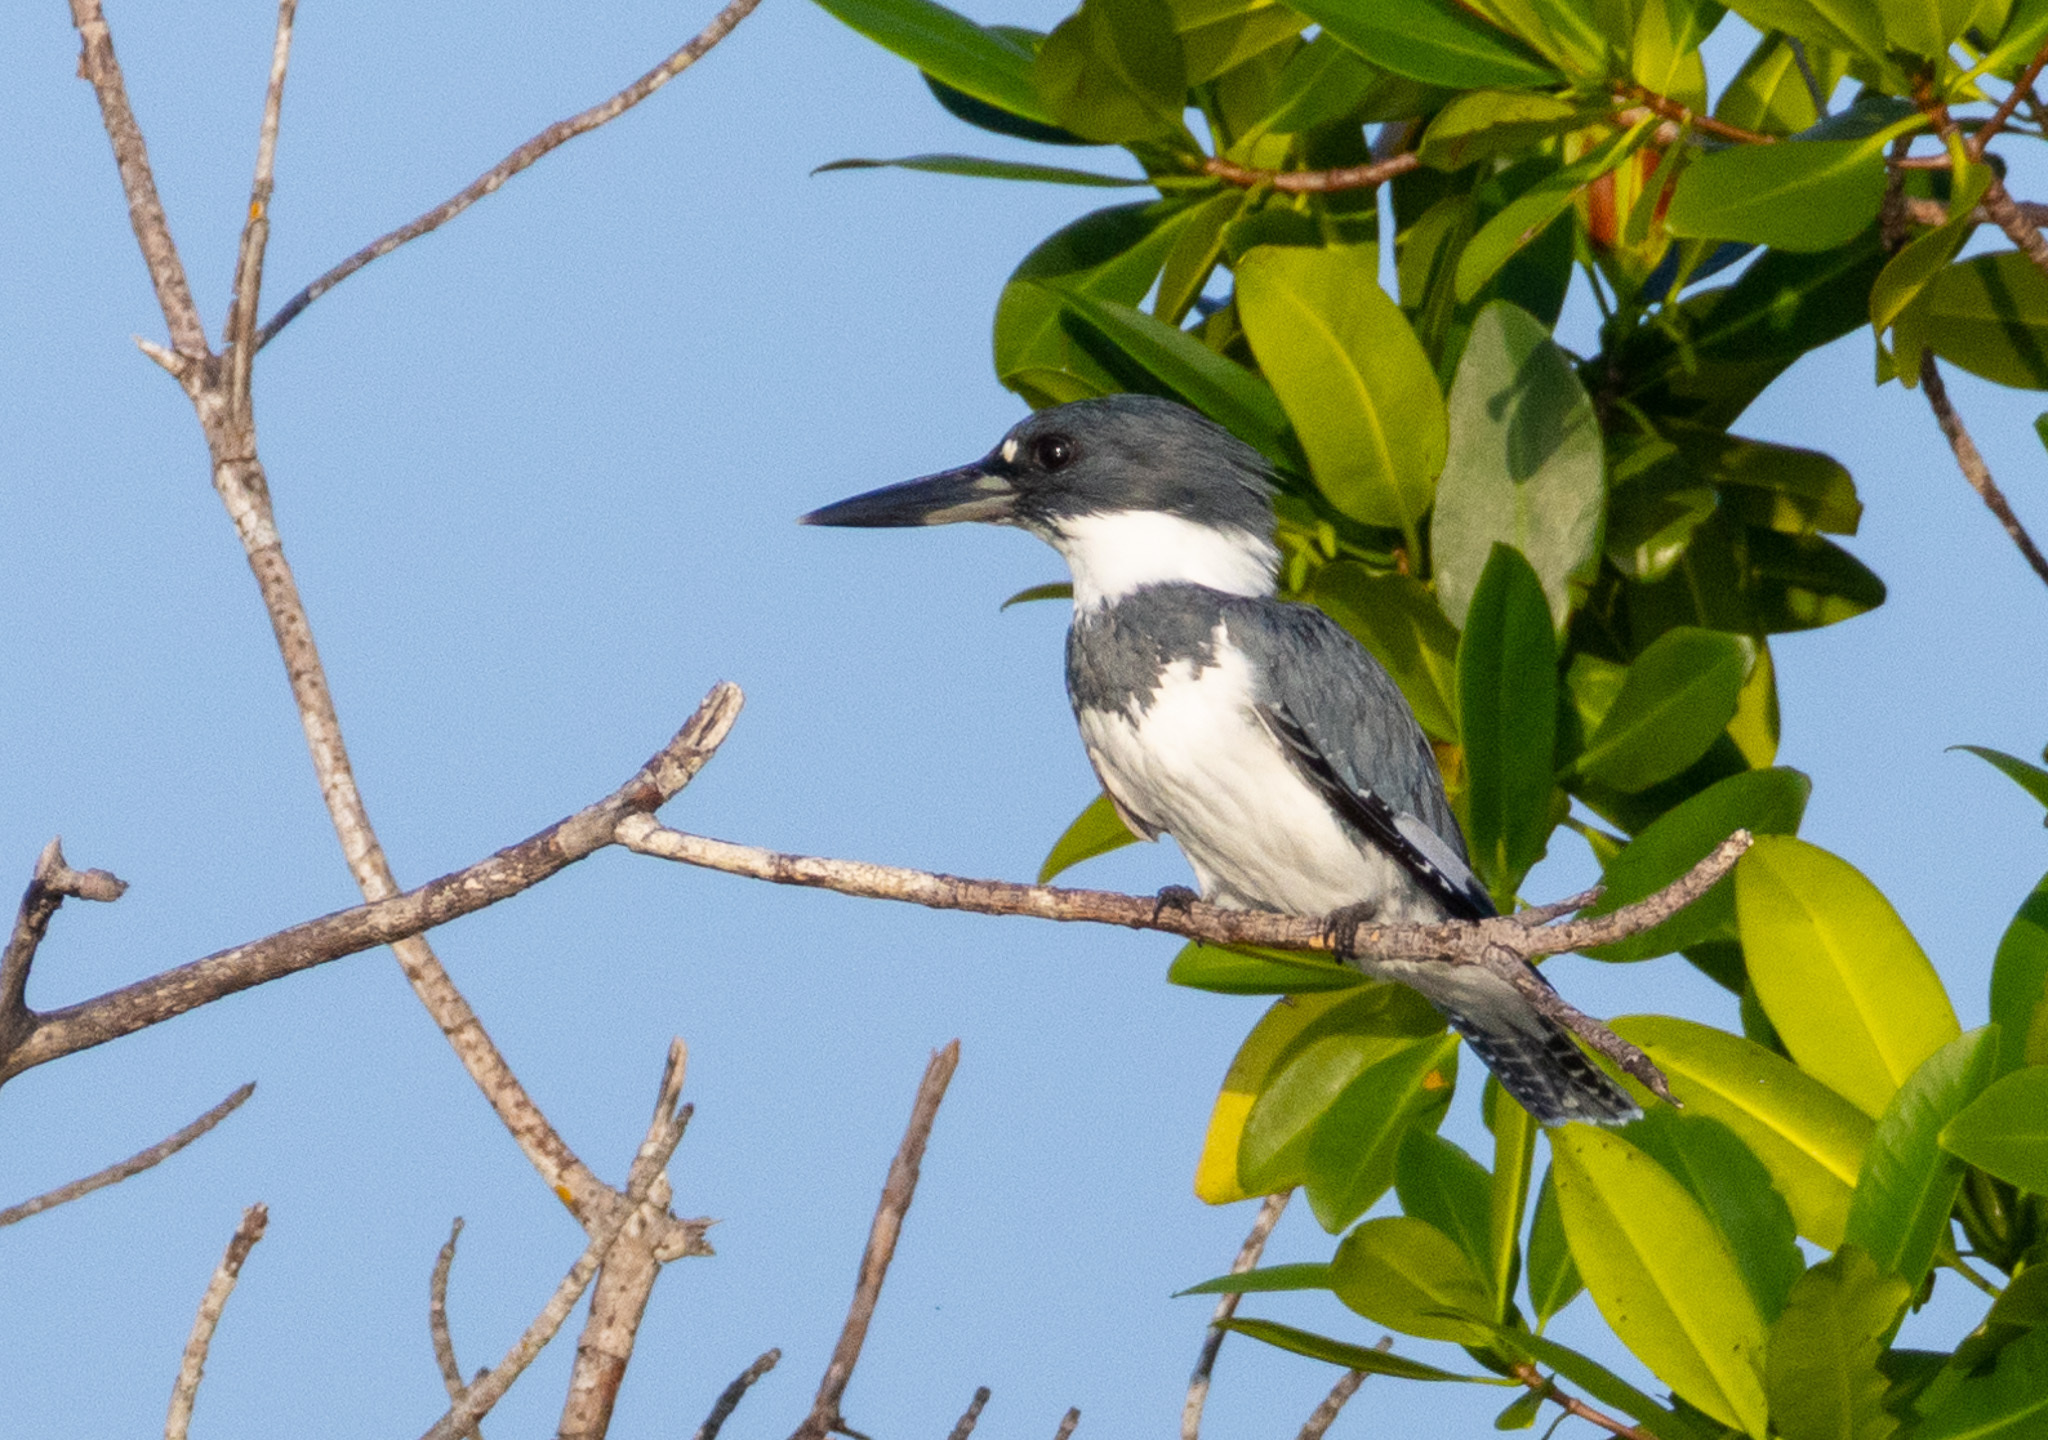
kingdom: Animalia
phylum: Chordata
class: Aves
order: Coraciiformes
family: Alcedinidae
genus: Megaceryle
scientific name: Megaceryle alcyon
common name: Belted kingfisher
